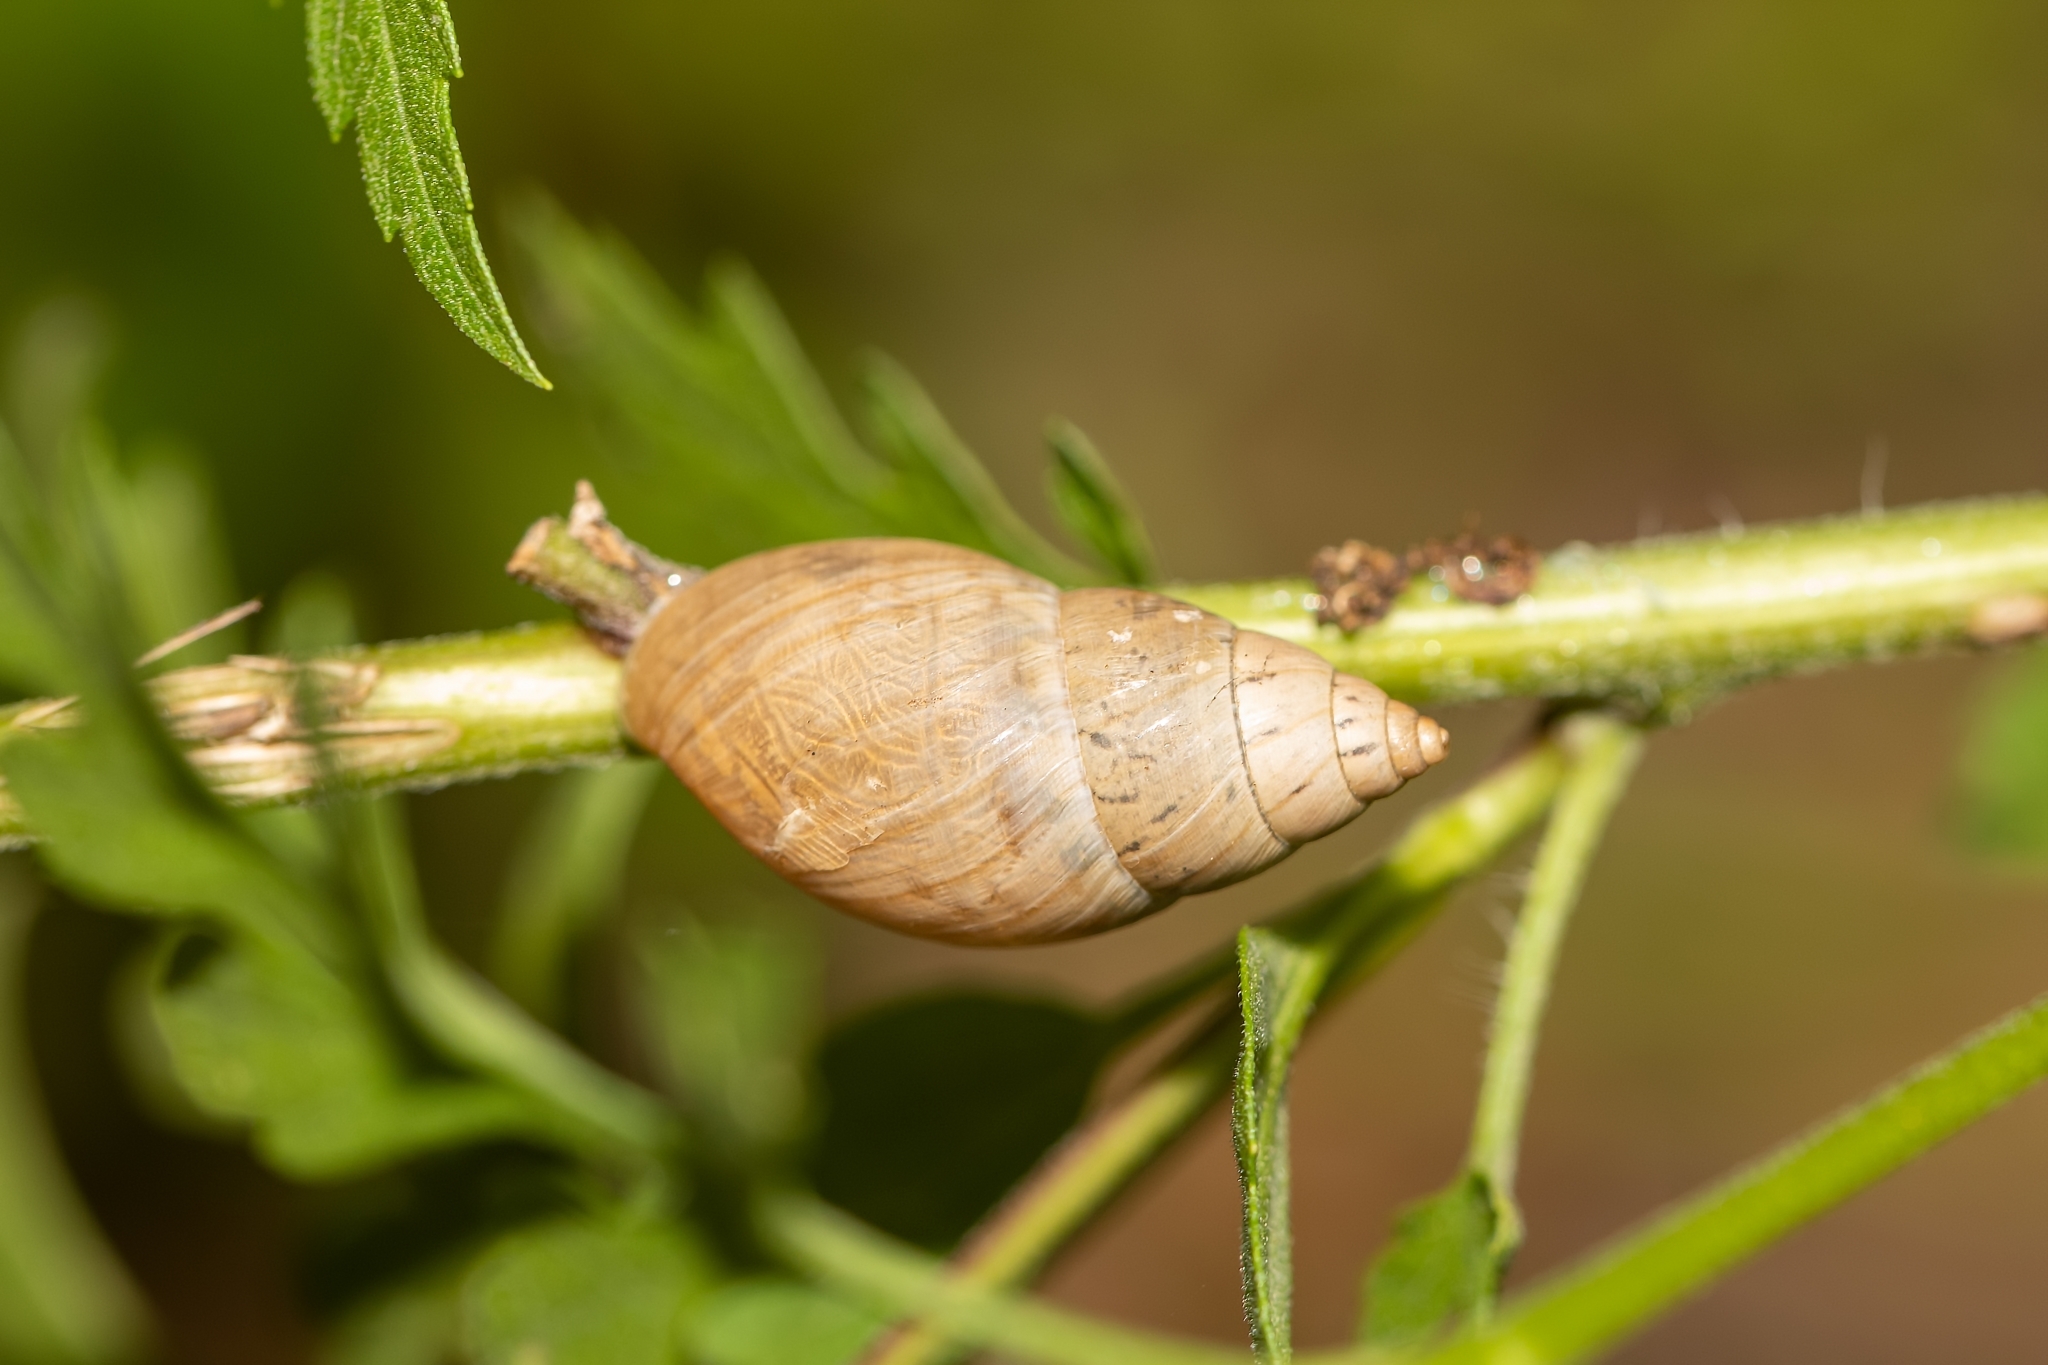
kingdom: Animalia
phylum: Mollusca
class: Gastropoda
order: Stylommatophora
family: Bulimulidae
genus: Bulimulus
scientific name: Bulimulus bonariensis
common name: Snail
